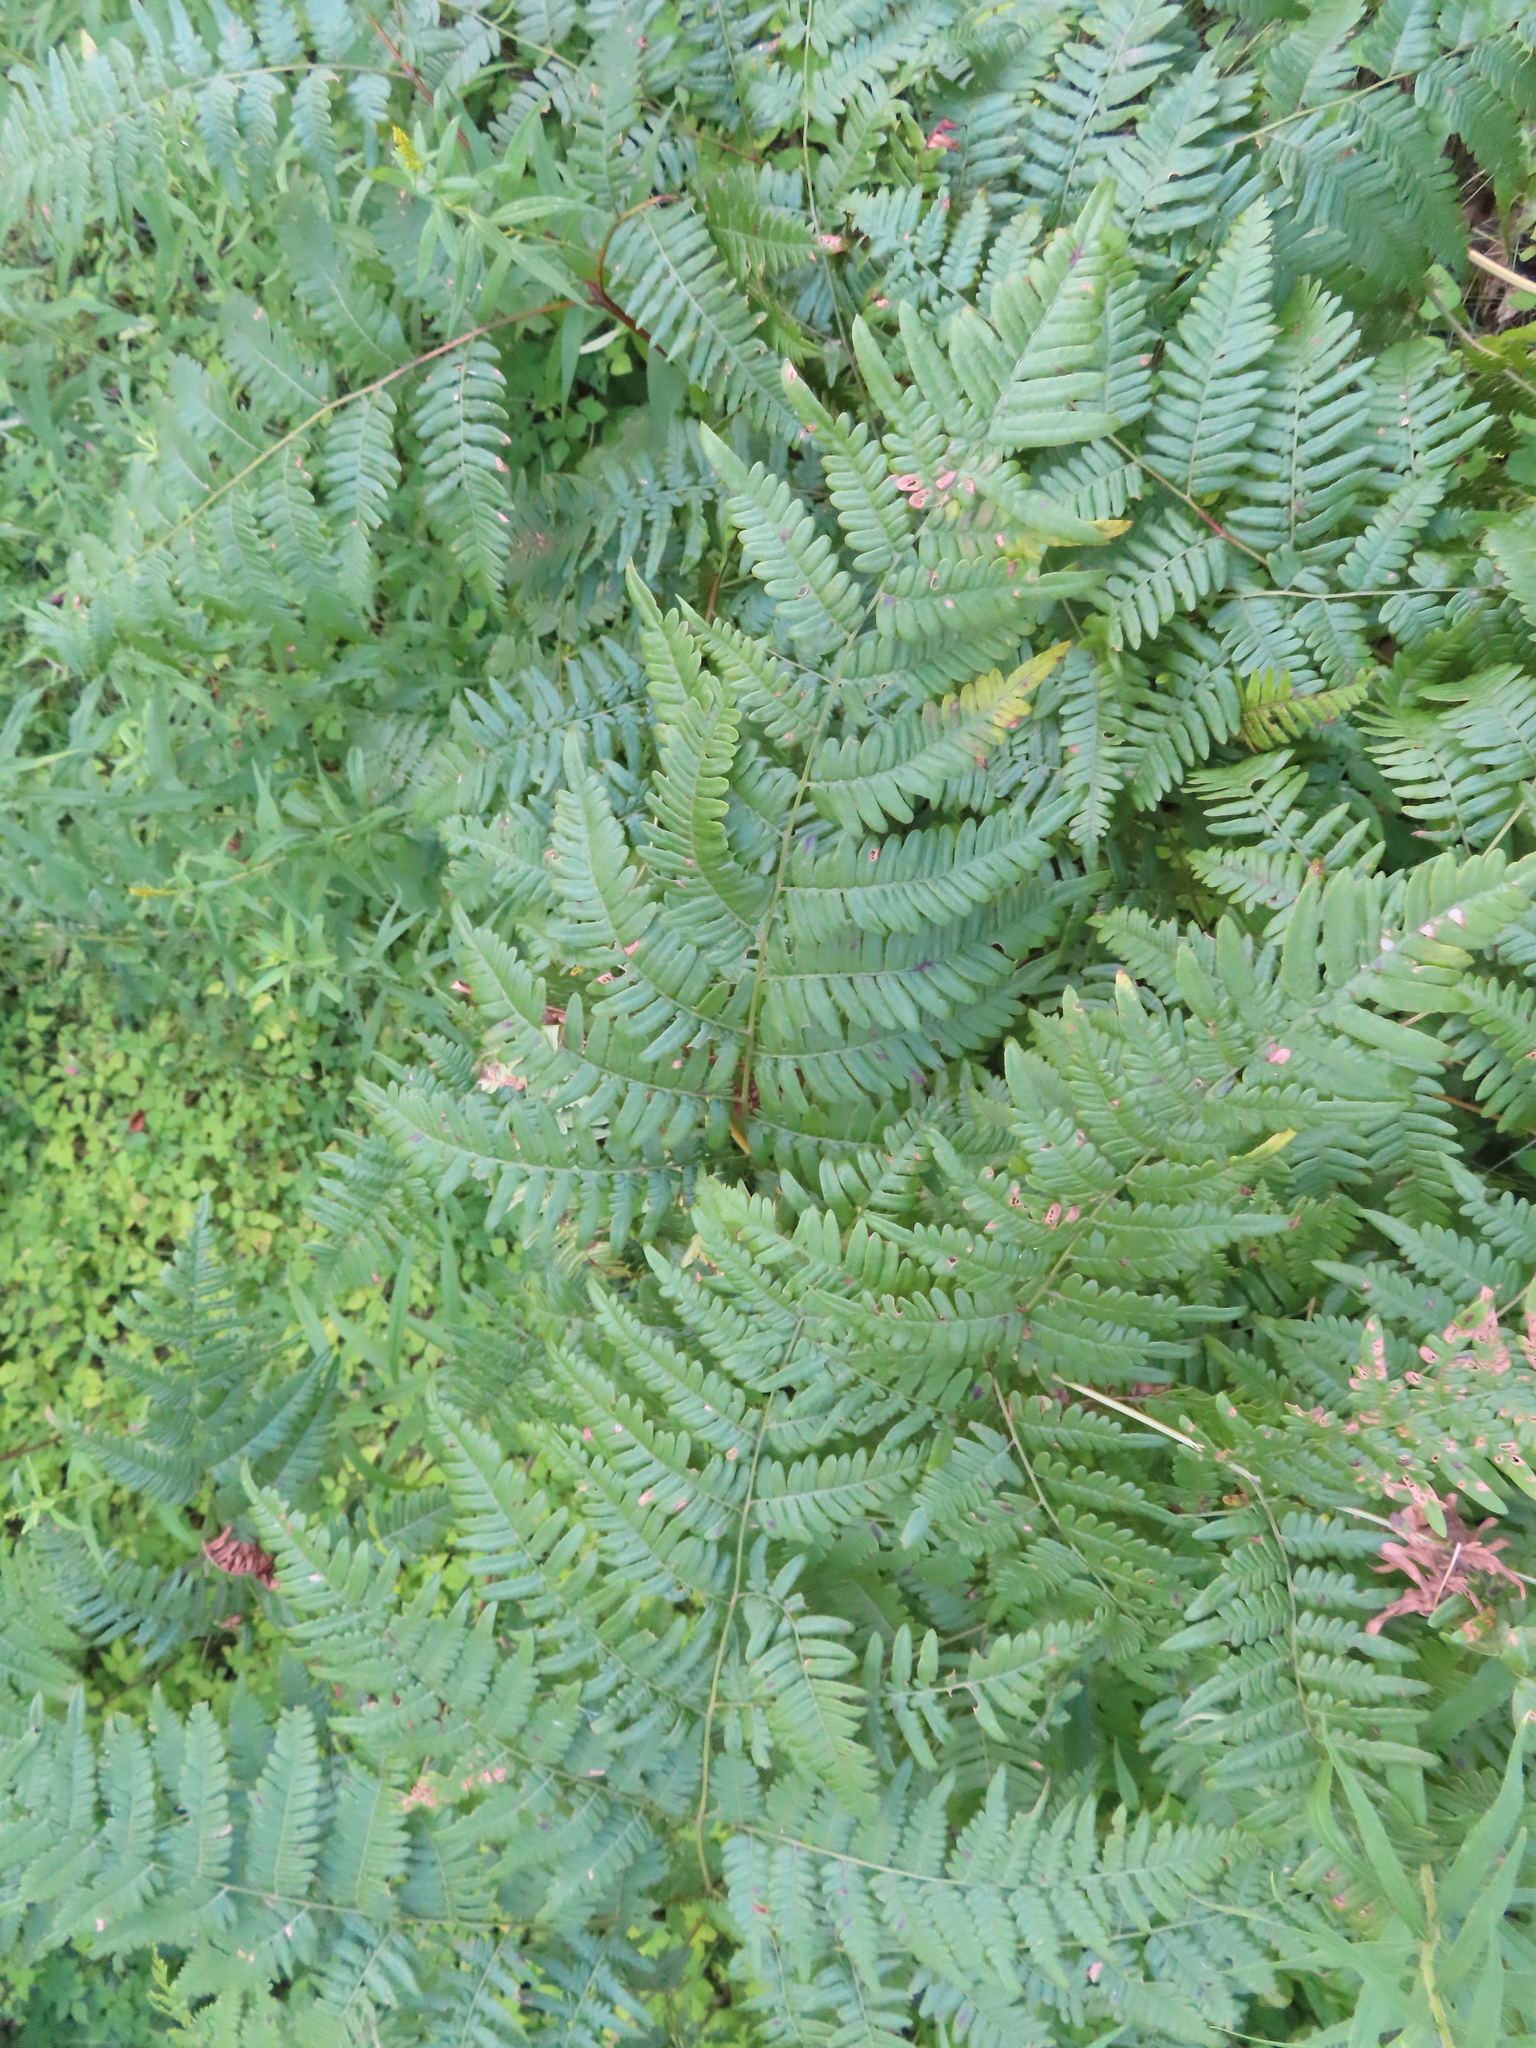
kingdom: Plantae
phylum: Tracheophyta
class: Polypodiopsida
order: Polypodiales
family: Dennstaedtiaceae
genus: Pteridium
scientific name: Pteridium aquilinum
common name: Bracken
